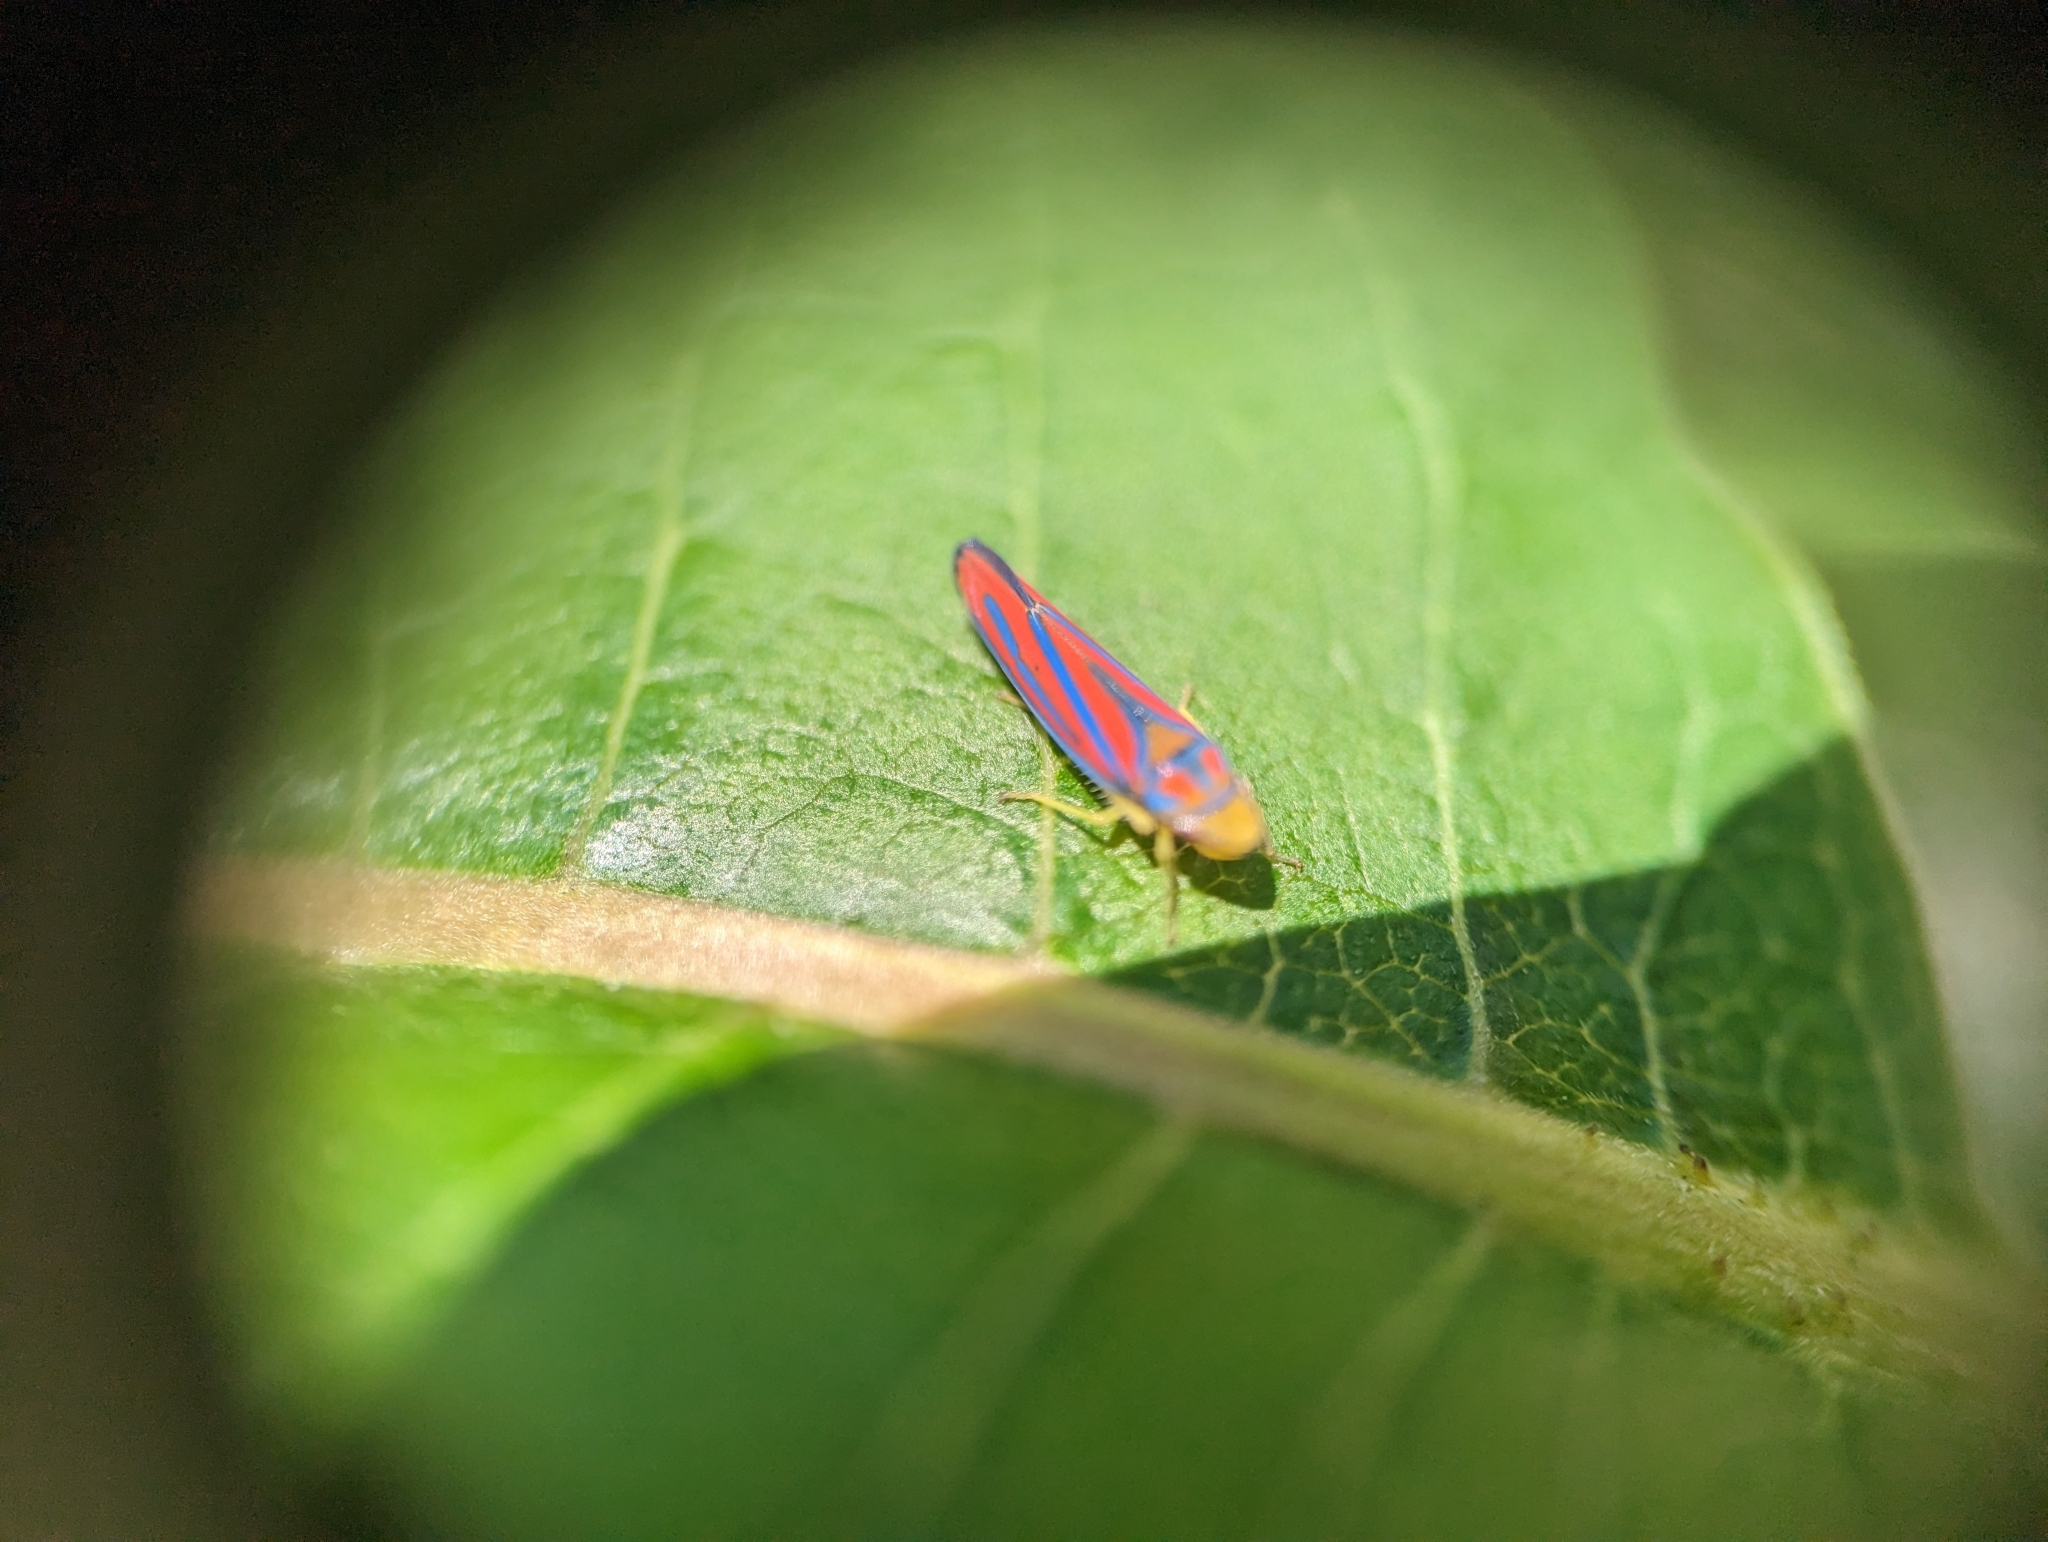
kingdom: Animalia
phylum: Arthropoda
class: Insecta
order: Hemiptera
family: Cicadellidae
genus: Graphocephala
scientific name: Graphocephala coccinea
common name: Candy-striped leafhopper
